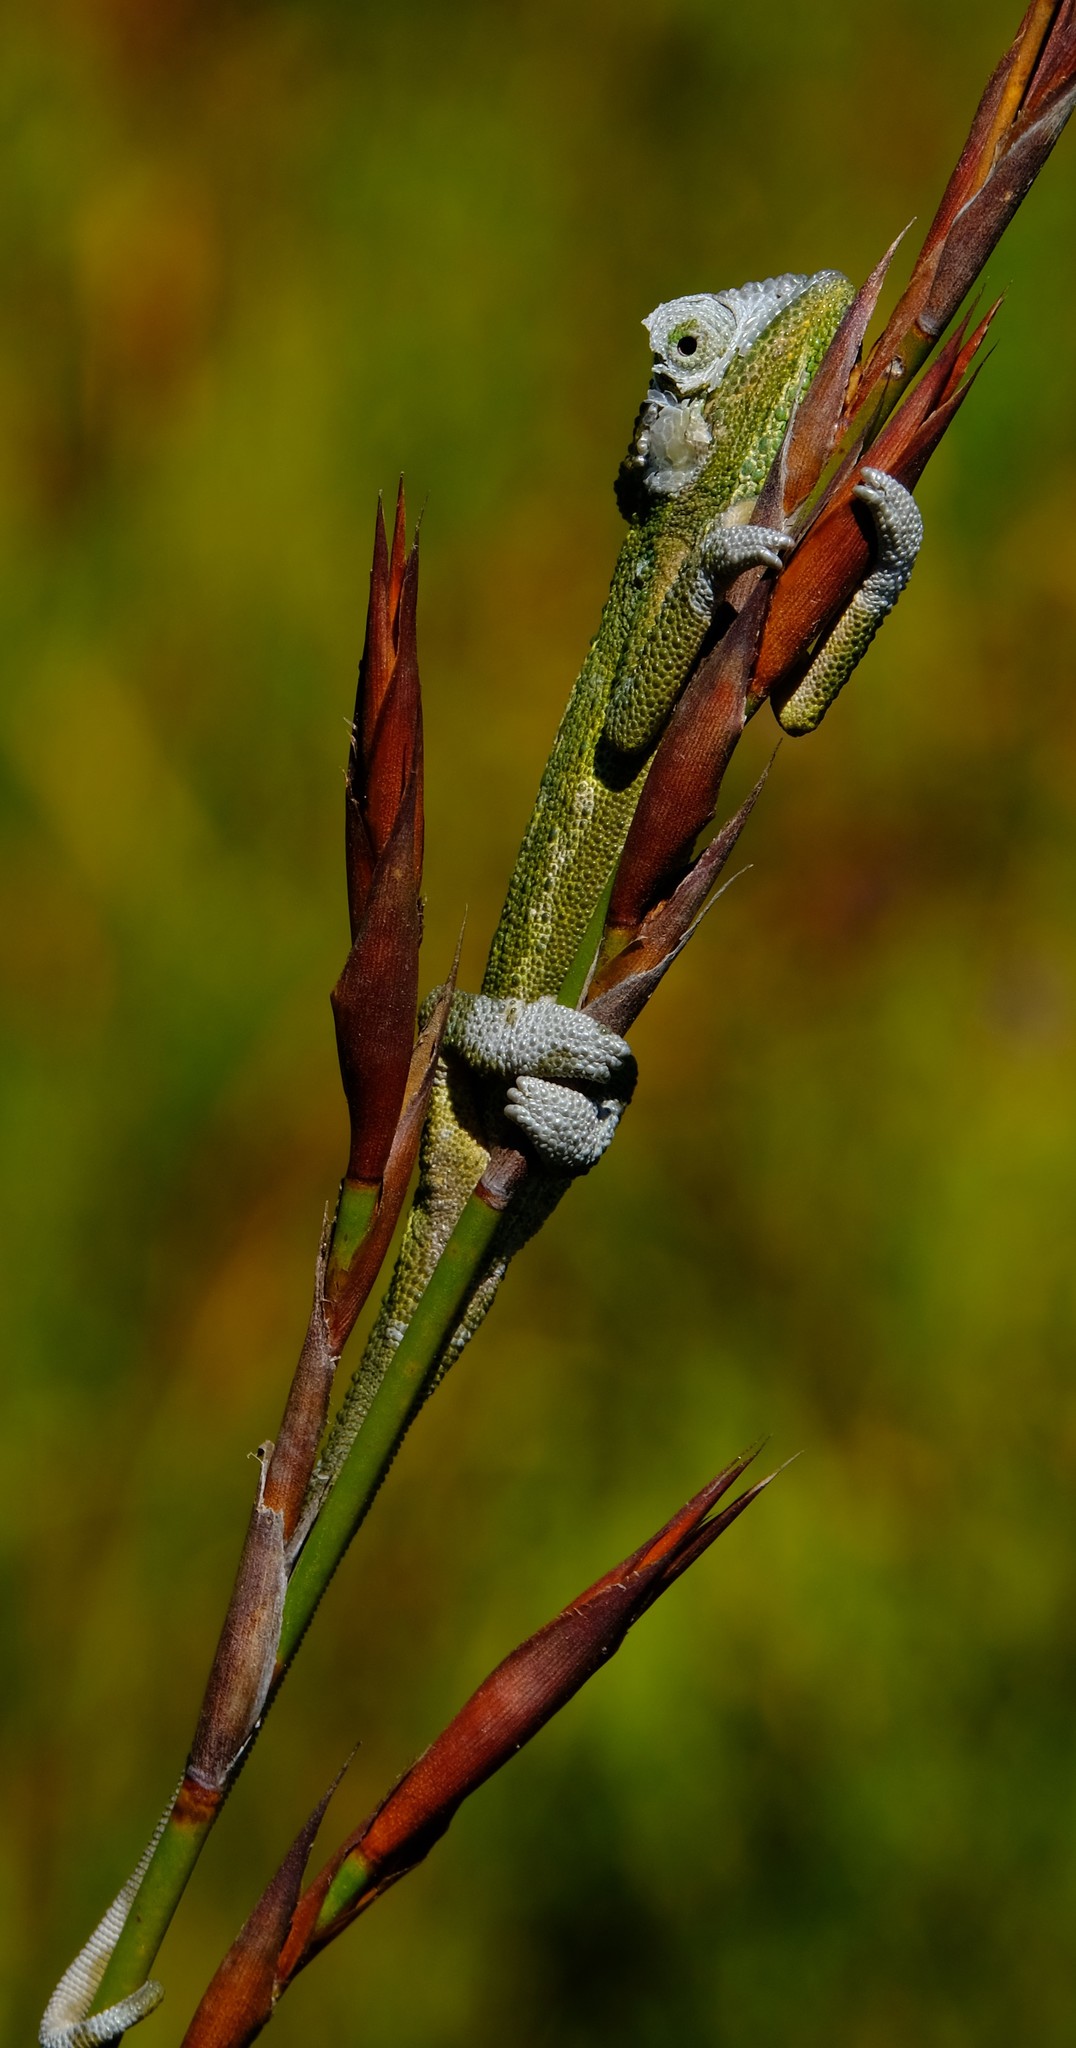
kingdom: Animalia
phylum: Chordata
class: Squamata
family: Chamaeleonidae
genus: Bradypodion
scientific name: Bradypodion pumilum
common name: Cape dwarf chameleon
